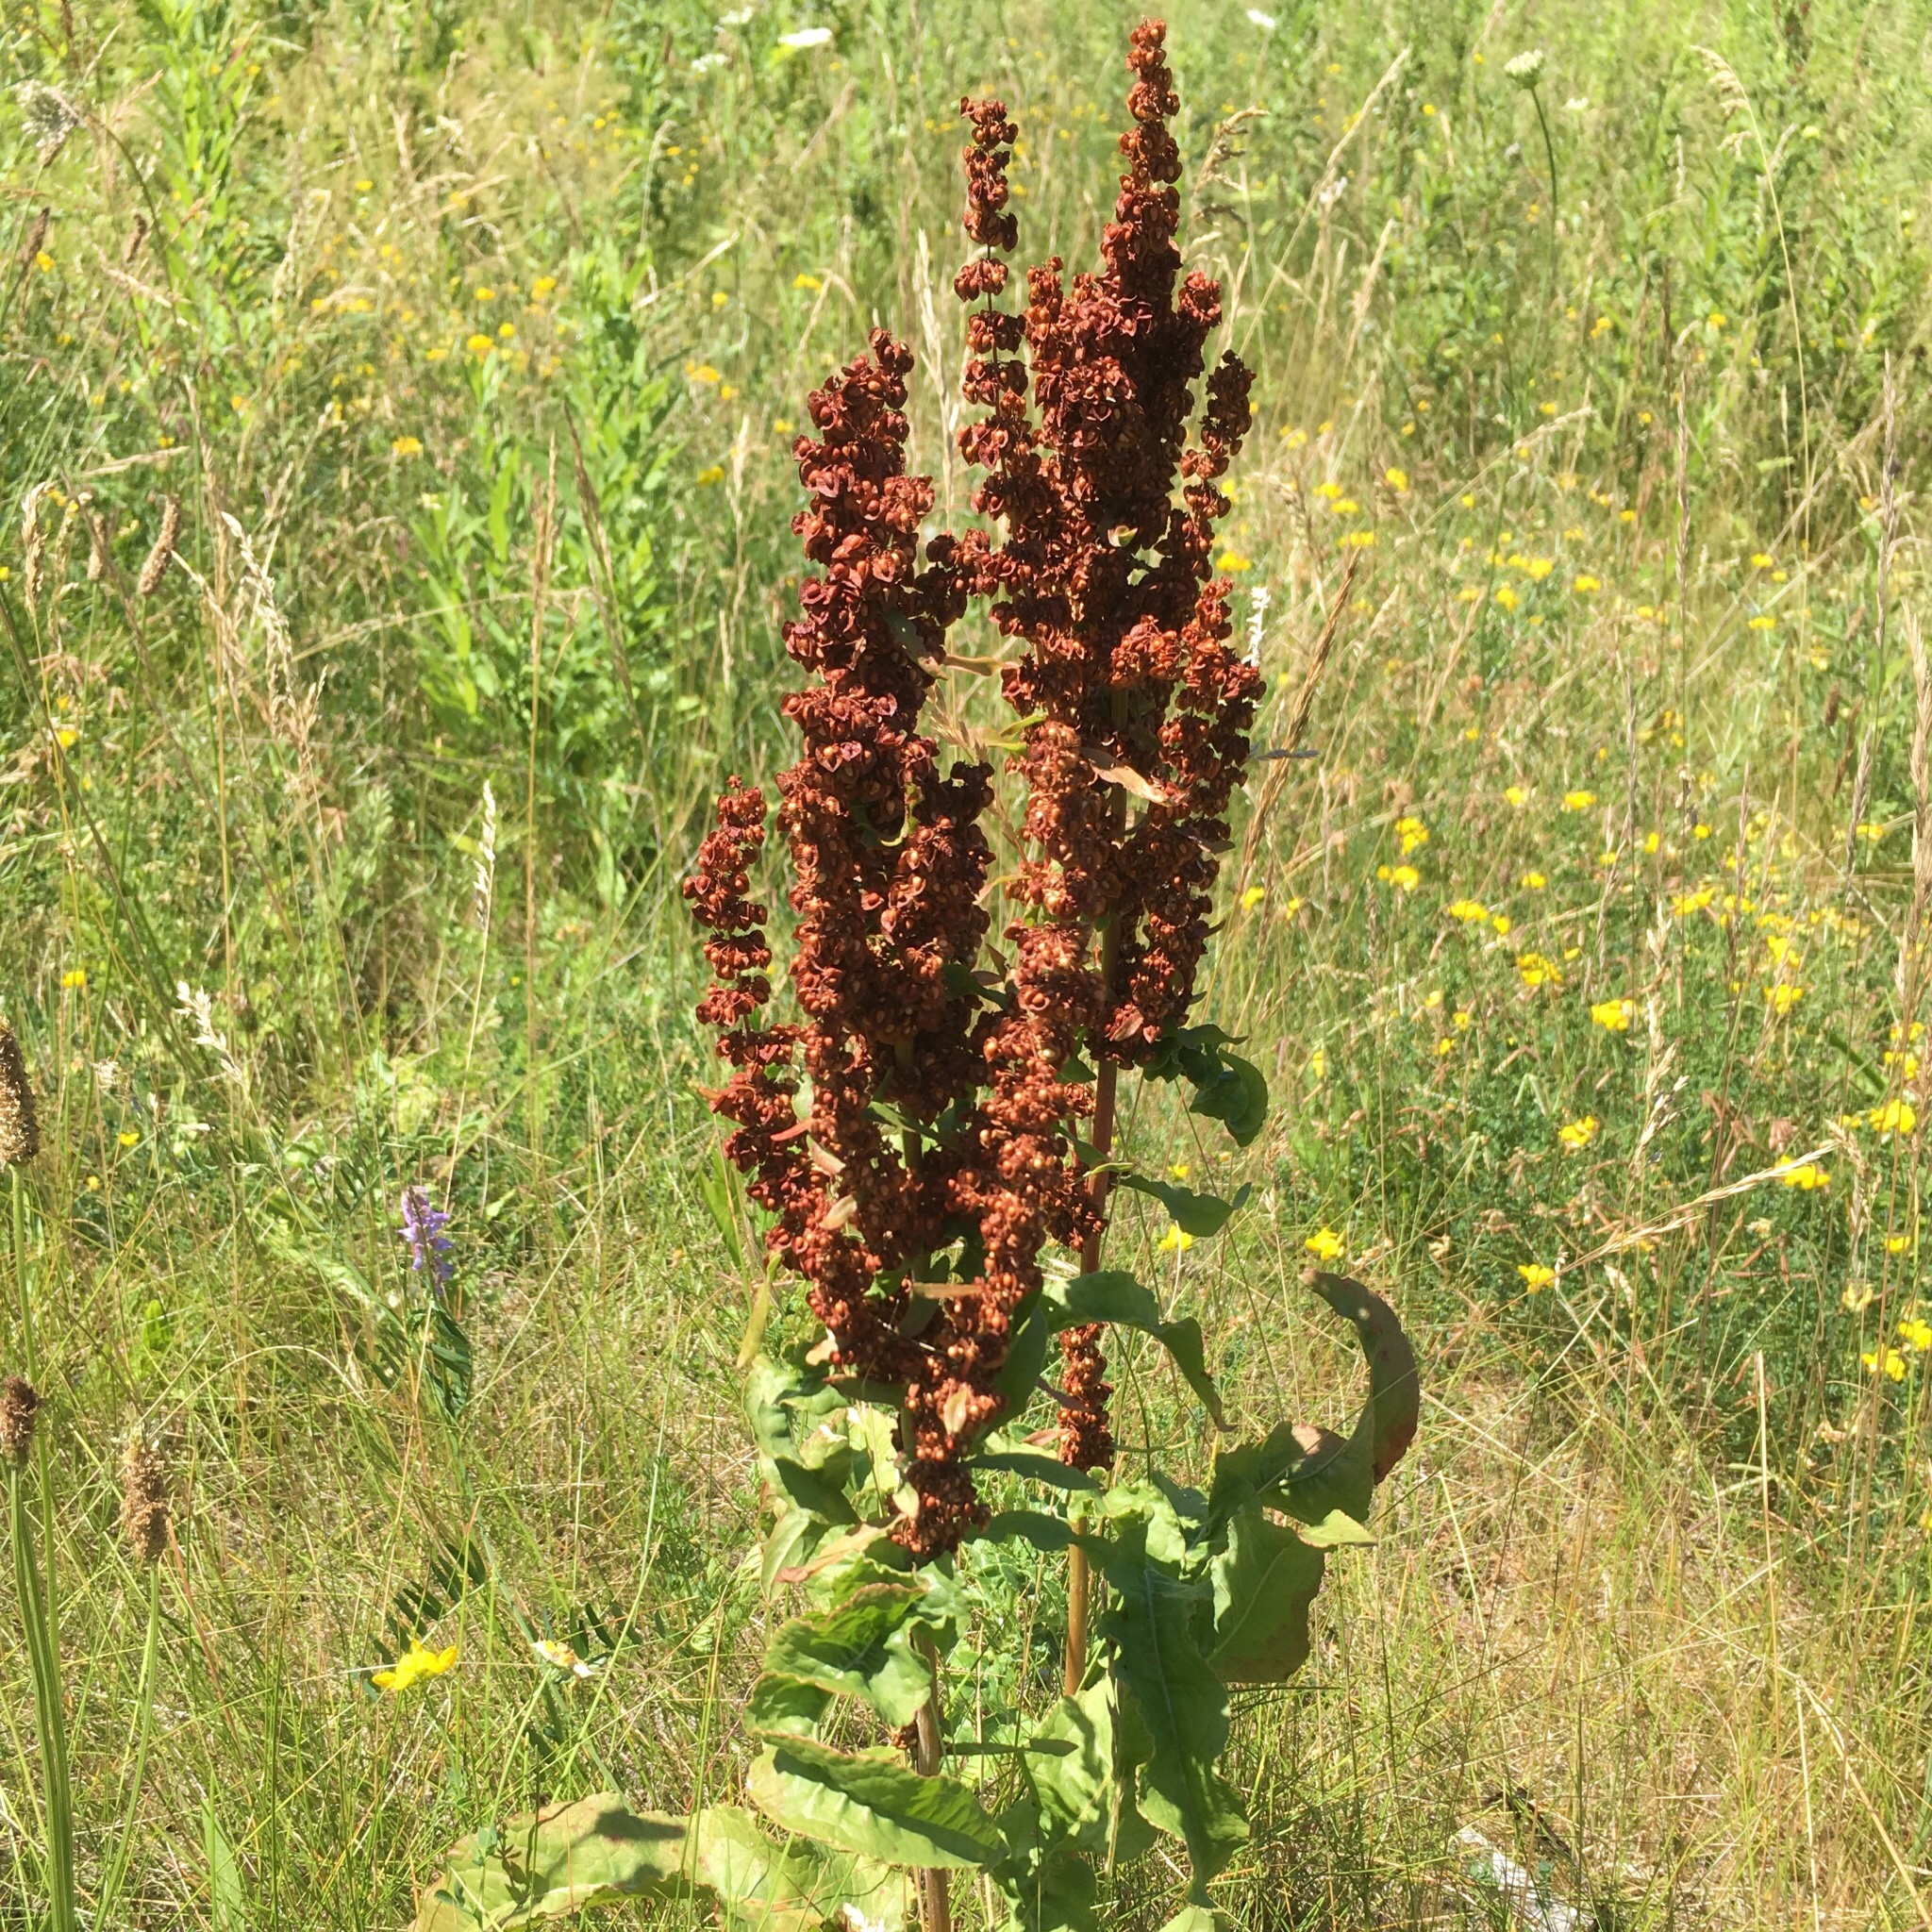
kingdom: Plantae
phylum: Tracheophyta
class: Magnoliopsida
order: Caryophyllales
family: Polygonaceae
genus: Rumex
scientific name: Rumex crispus
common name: Curled dock
